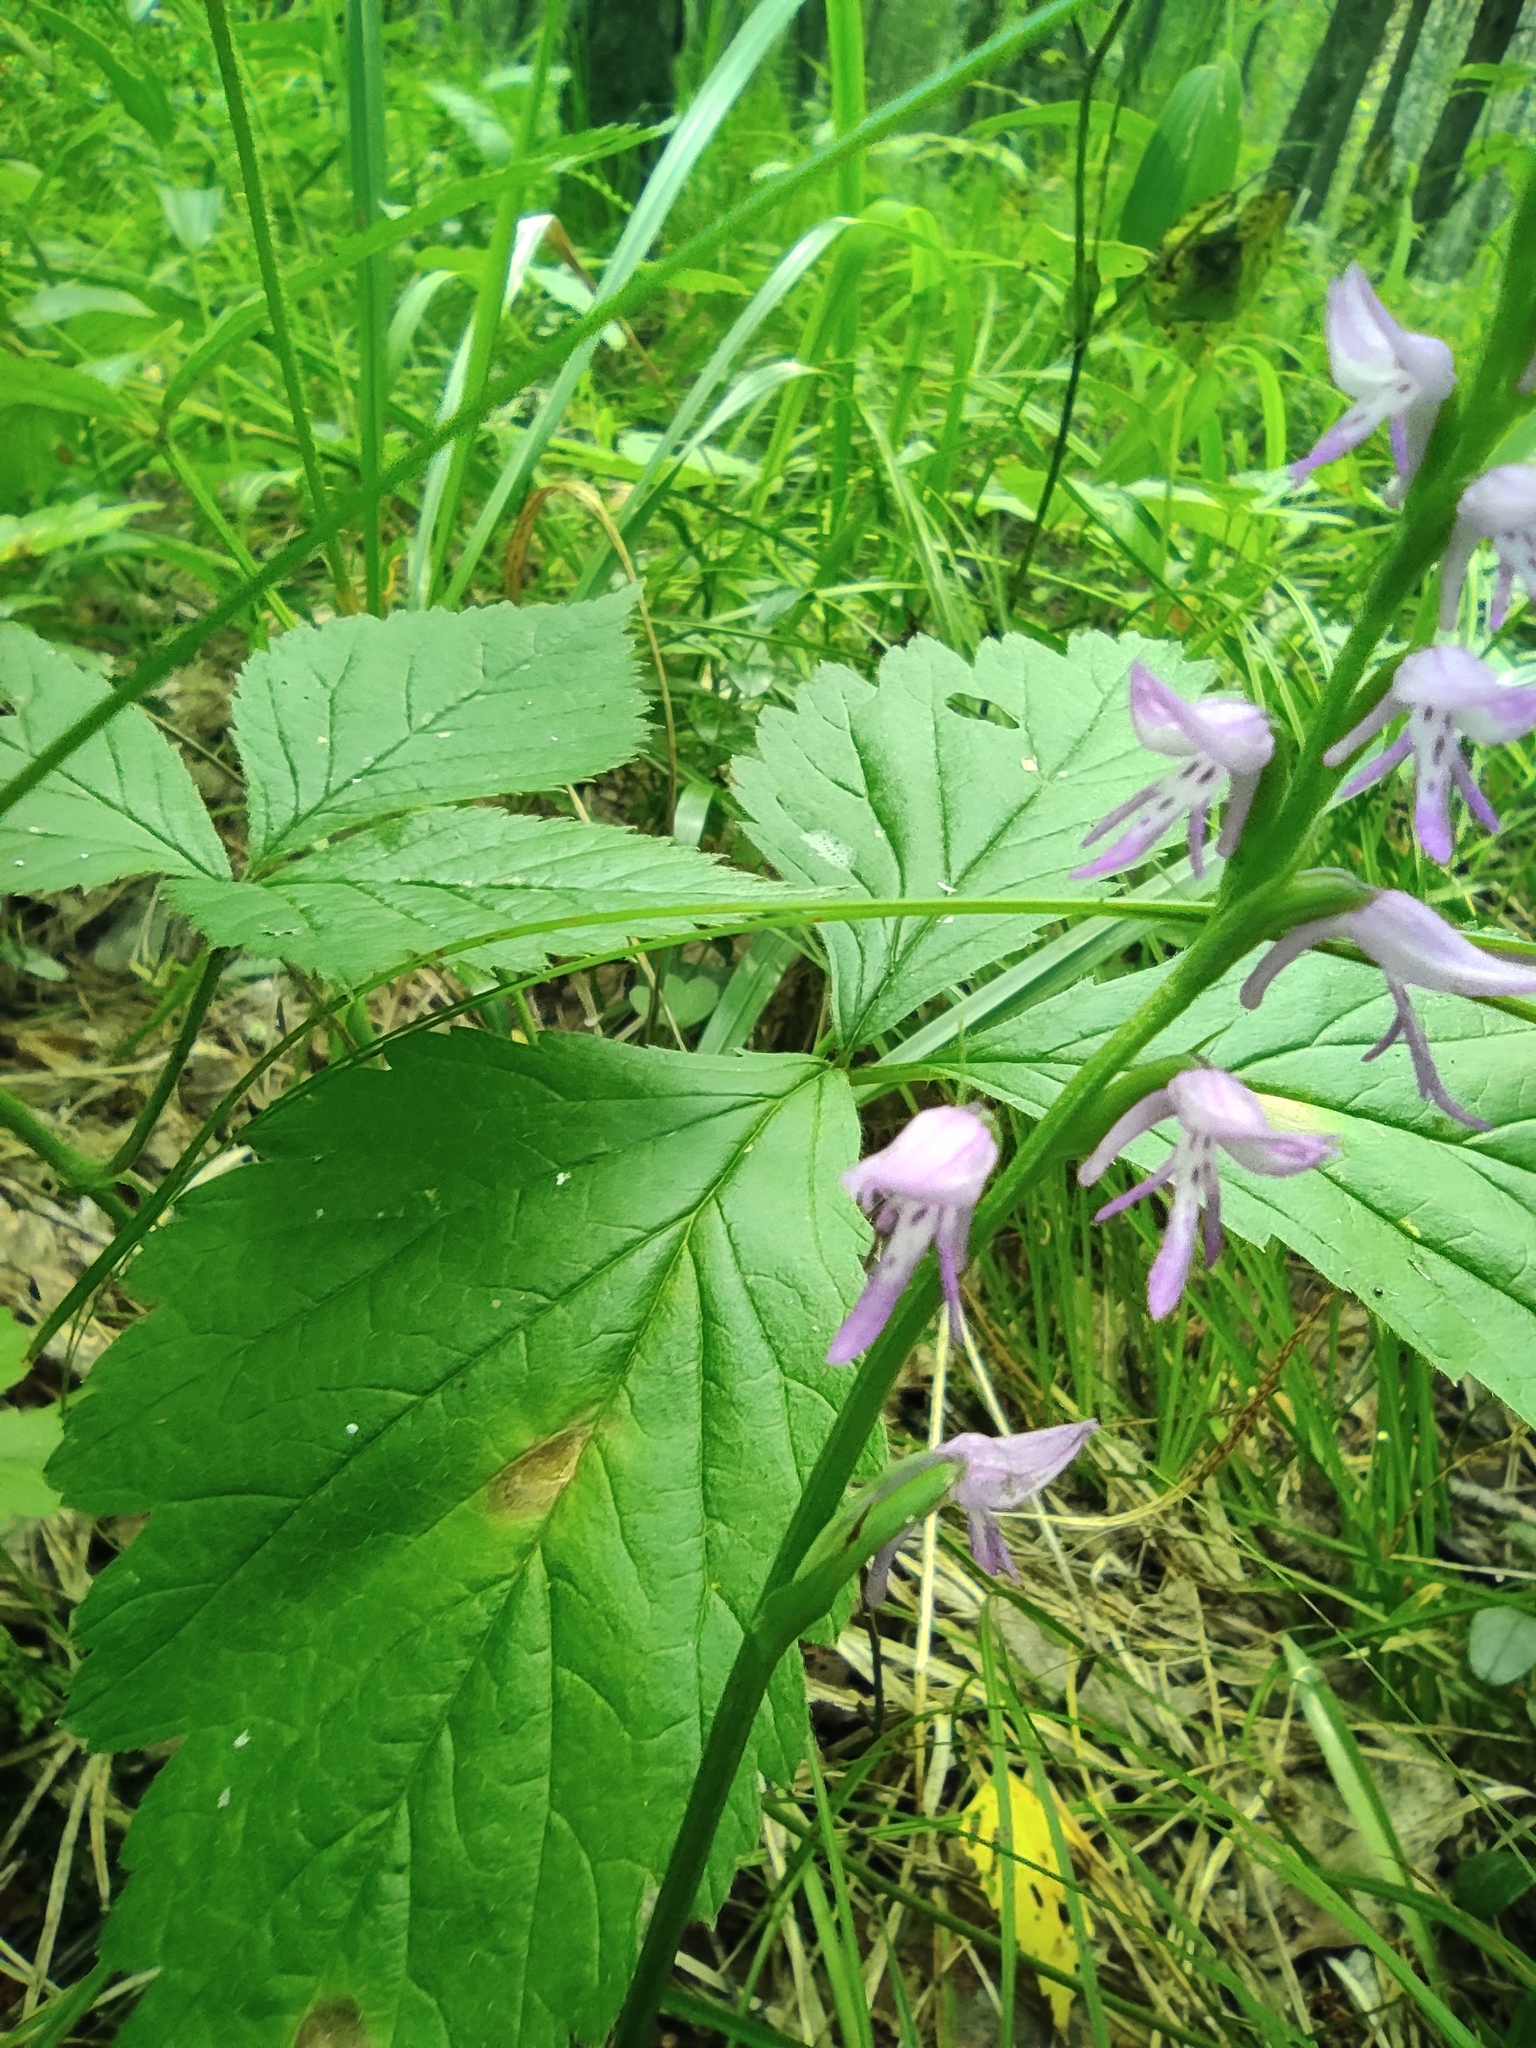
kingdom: Plantae
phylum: Tracheophyta
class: Liliopsida
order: Asparagales
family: Orchidaceae
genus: Hemipilia
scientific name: Hemipilia cucullata
